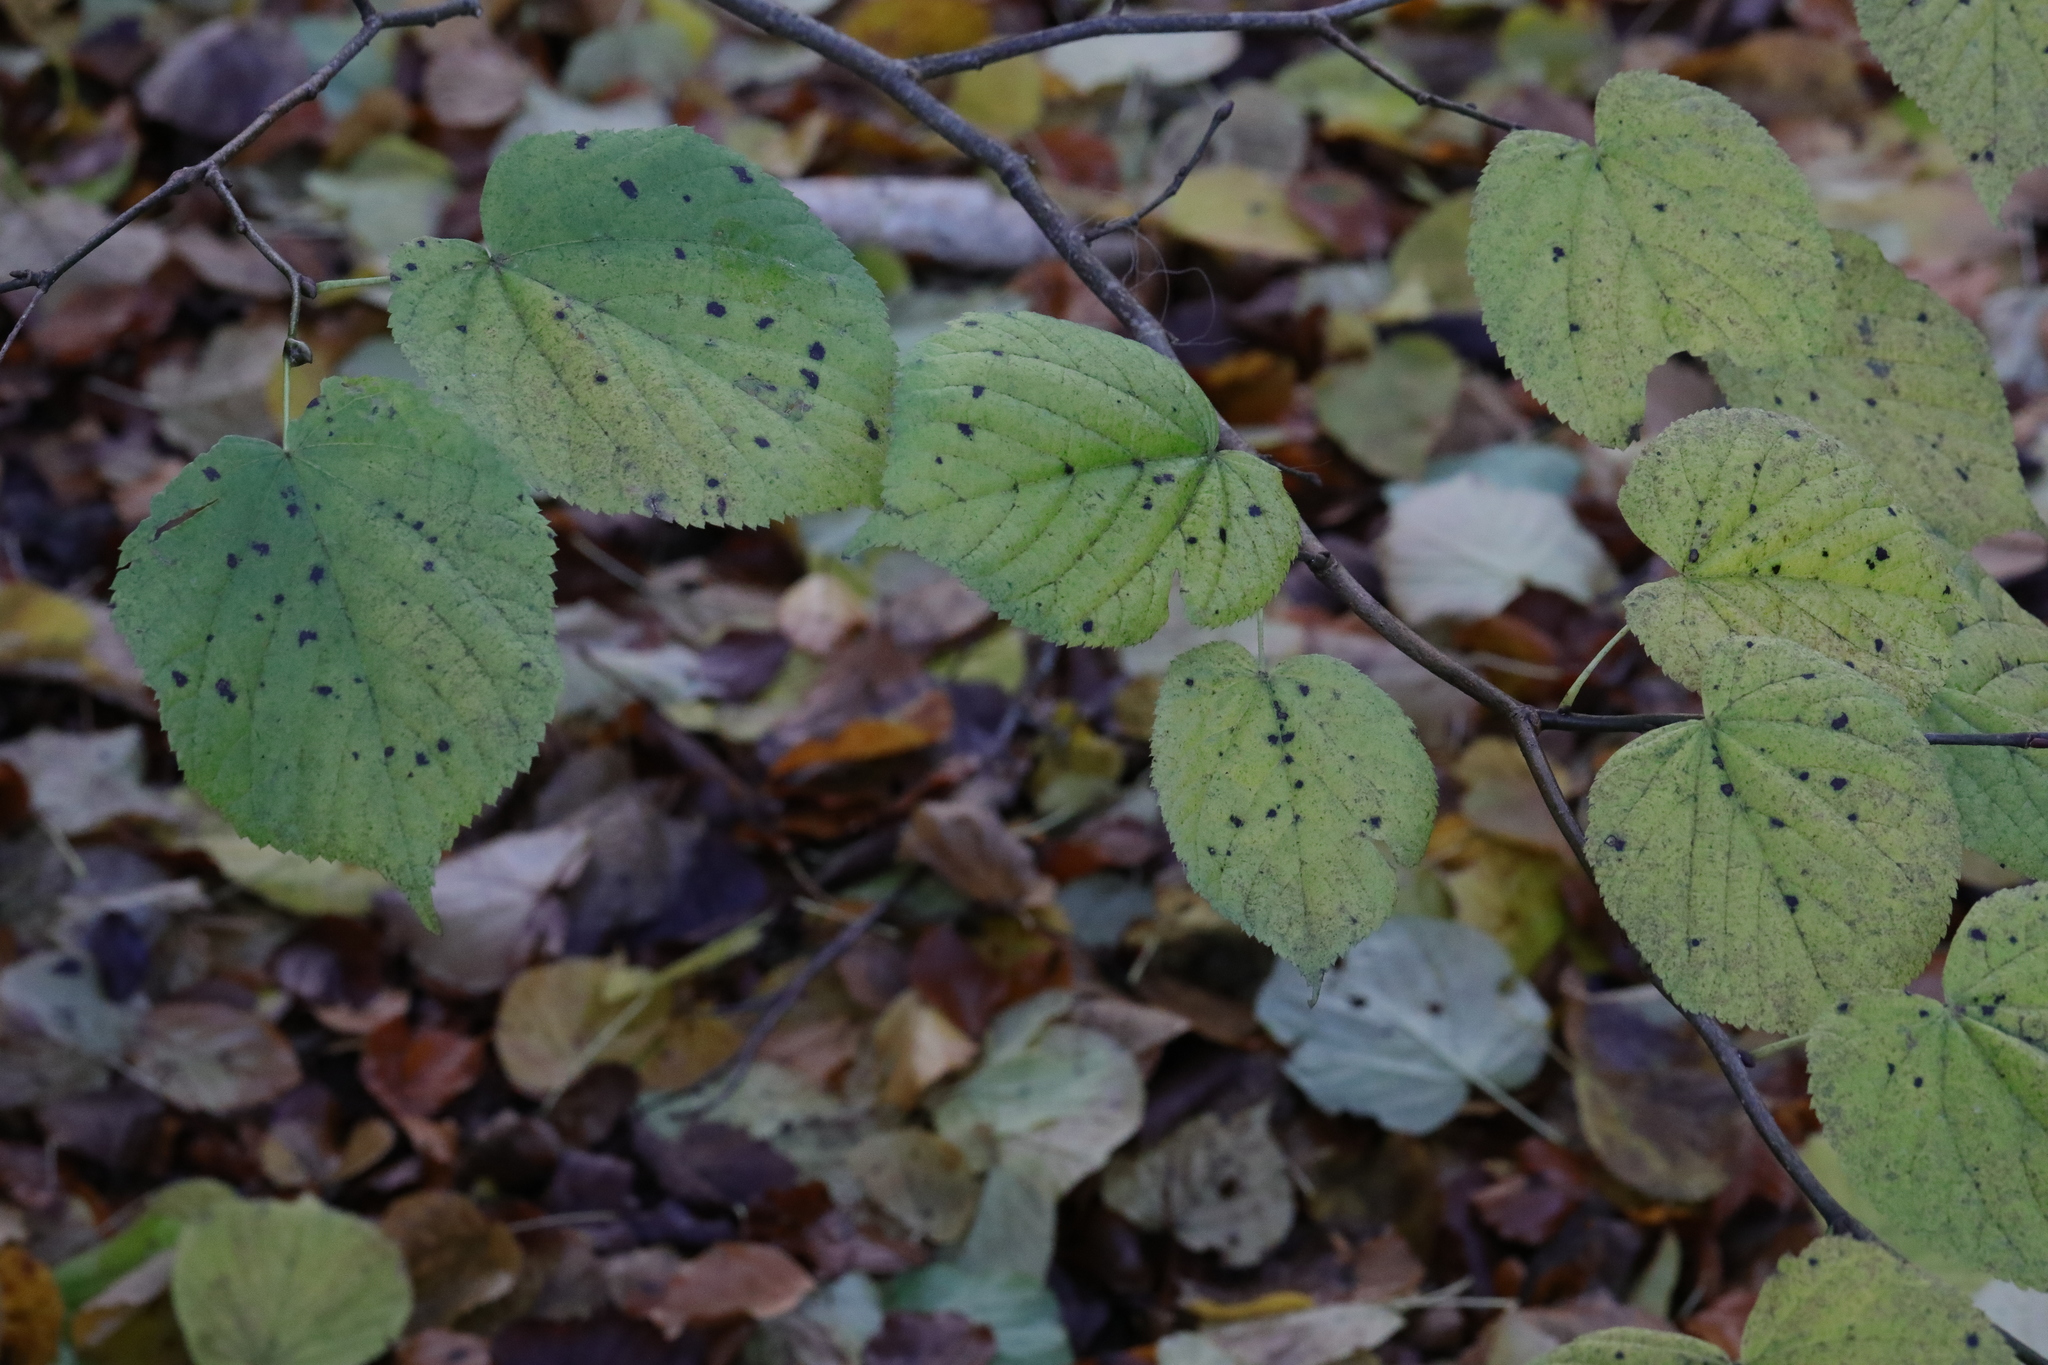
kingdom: Plantae
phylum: Tracheophyta
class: Magnoliopsida
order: Malvales
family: Malvaceae
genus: Tilia
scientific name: Tilia europaea
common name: European linden
